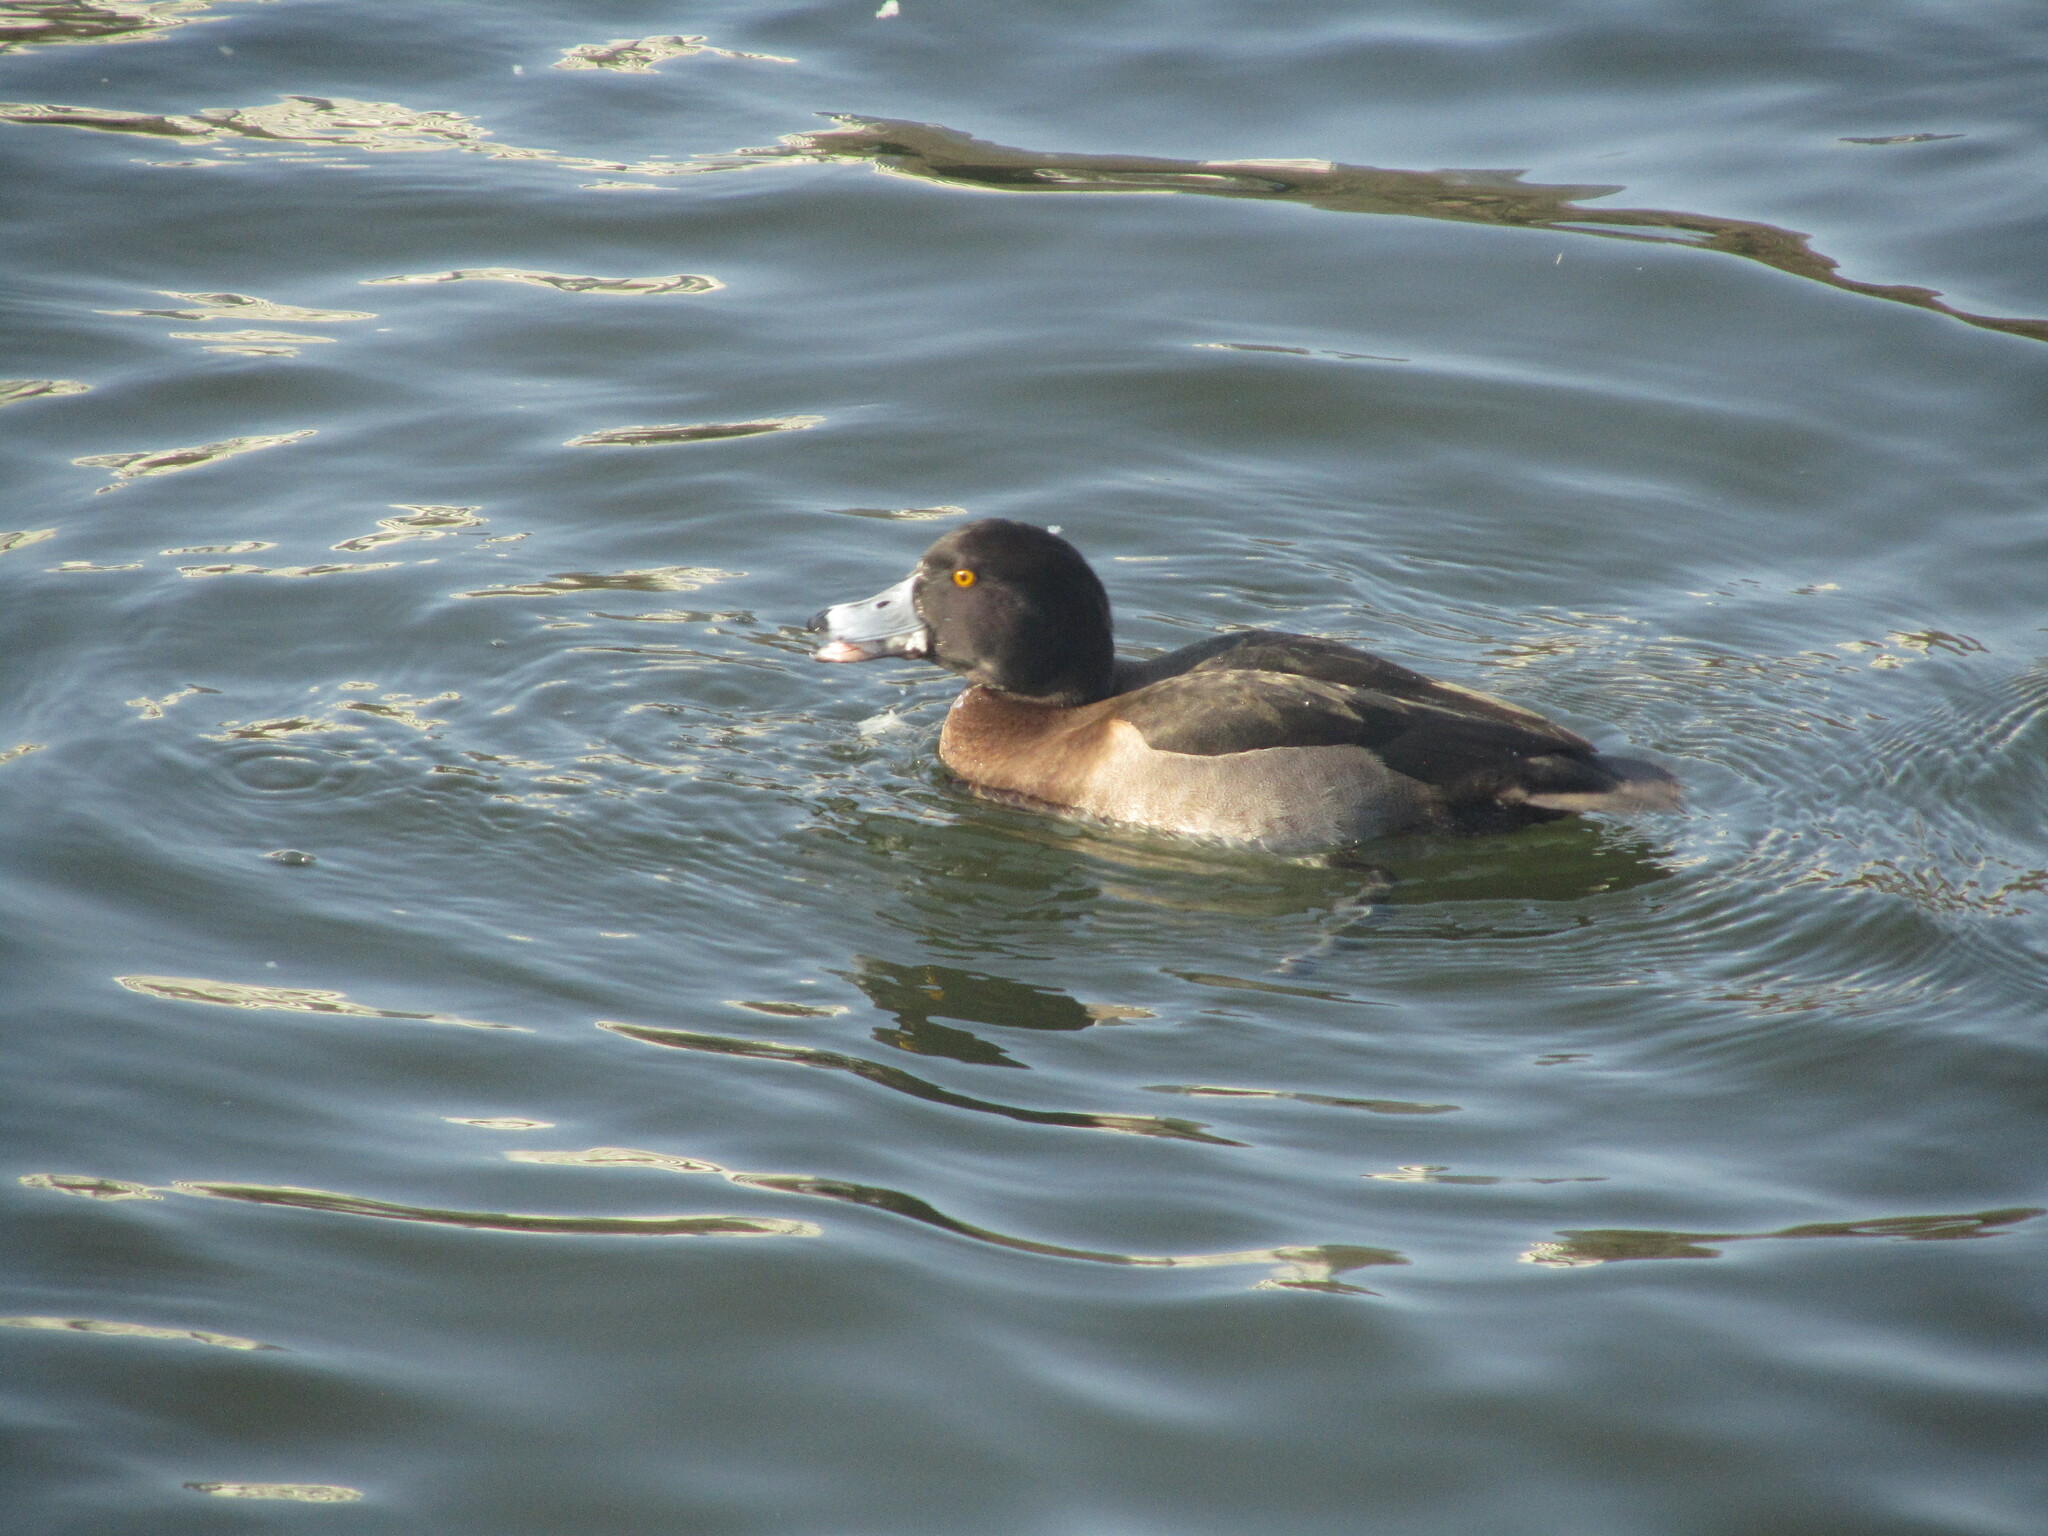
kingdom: Animalia
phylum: Chordata
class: Aves
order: Anseriformes
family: Anatidae
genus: Aythya
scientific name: Aythya fuligula
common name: Tufted duck
